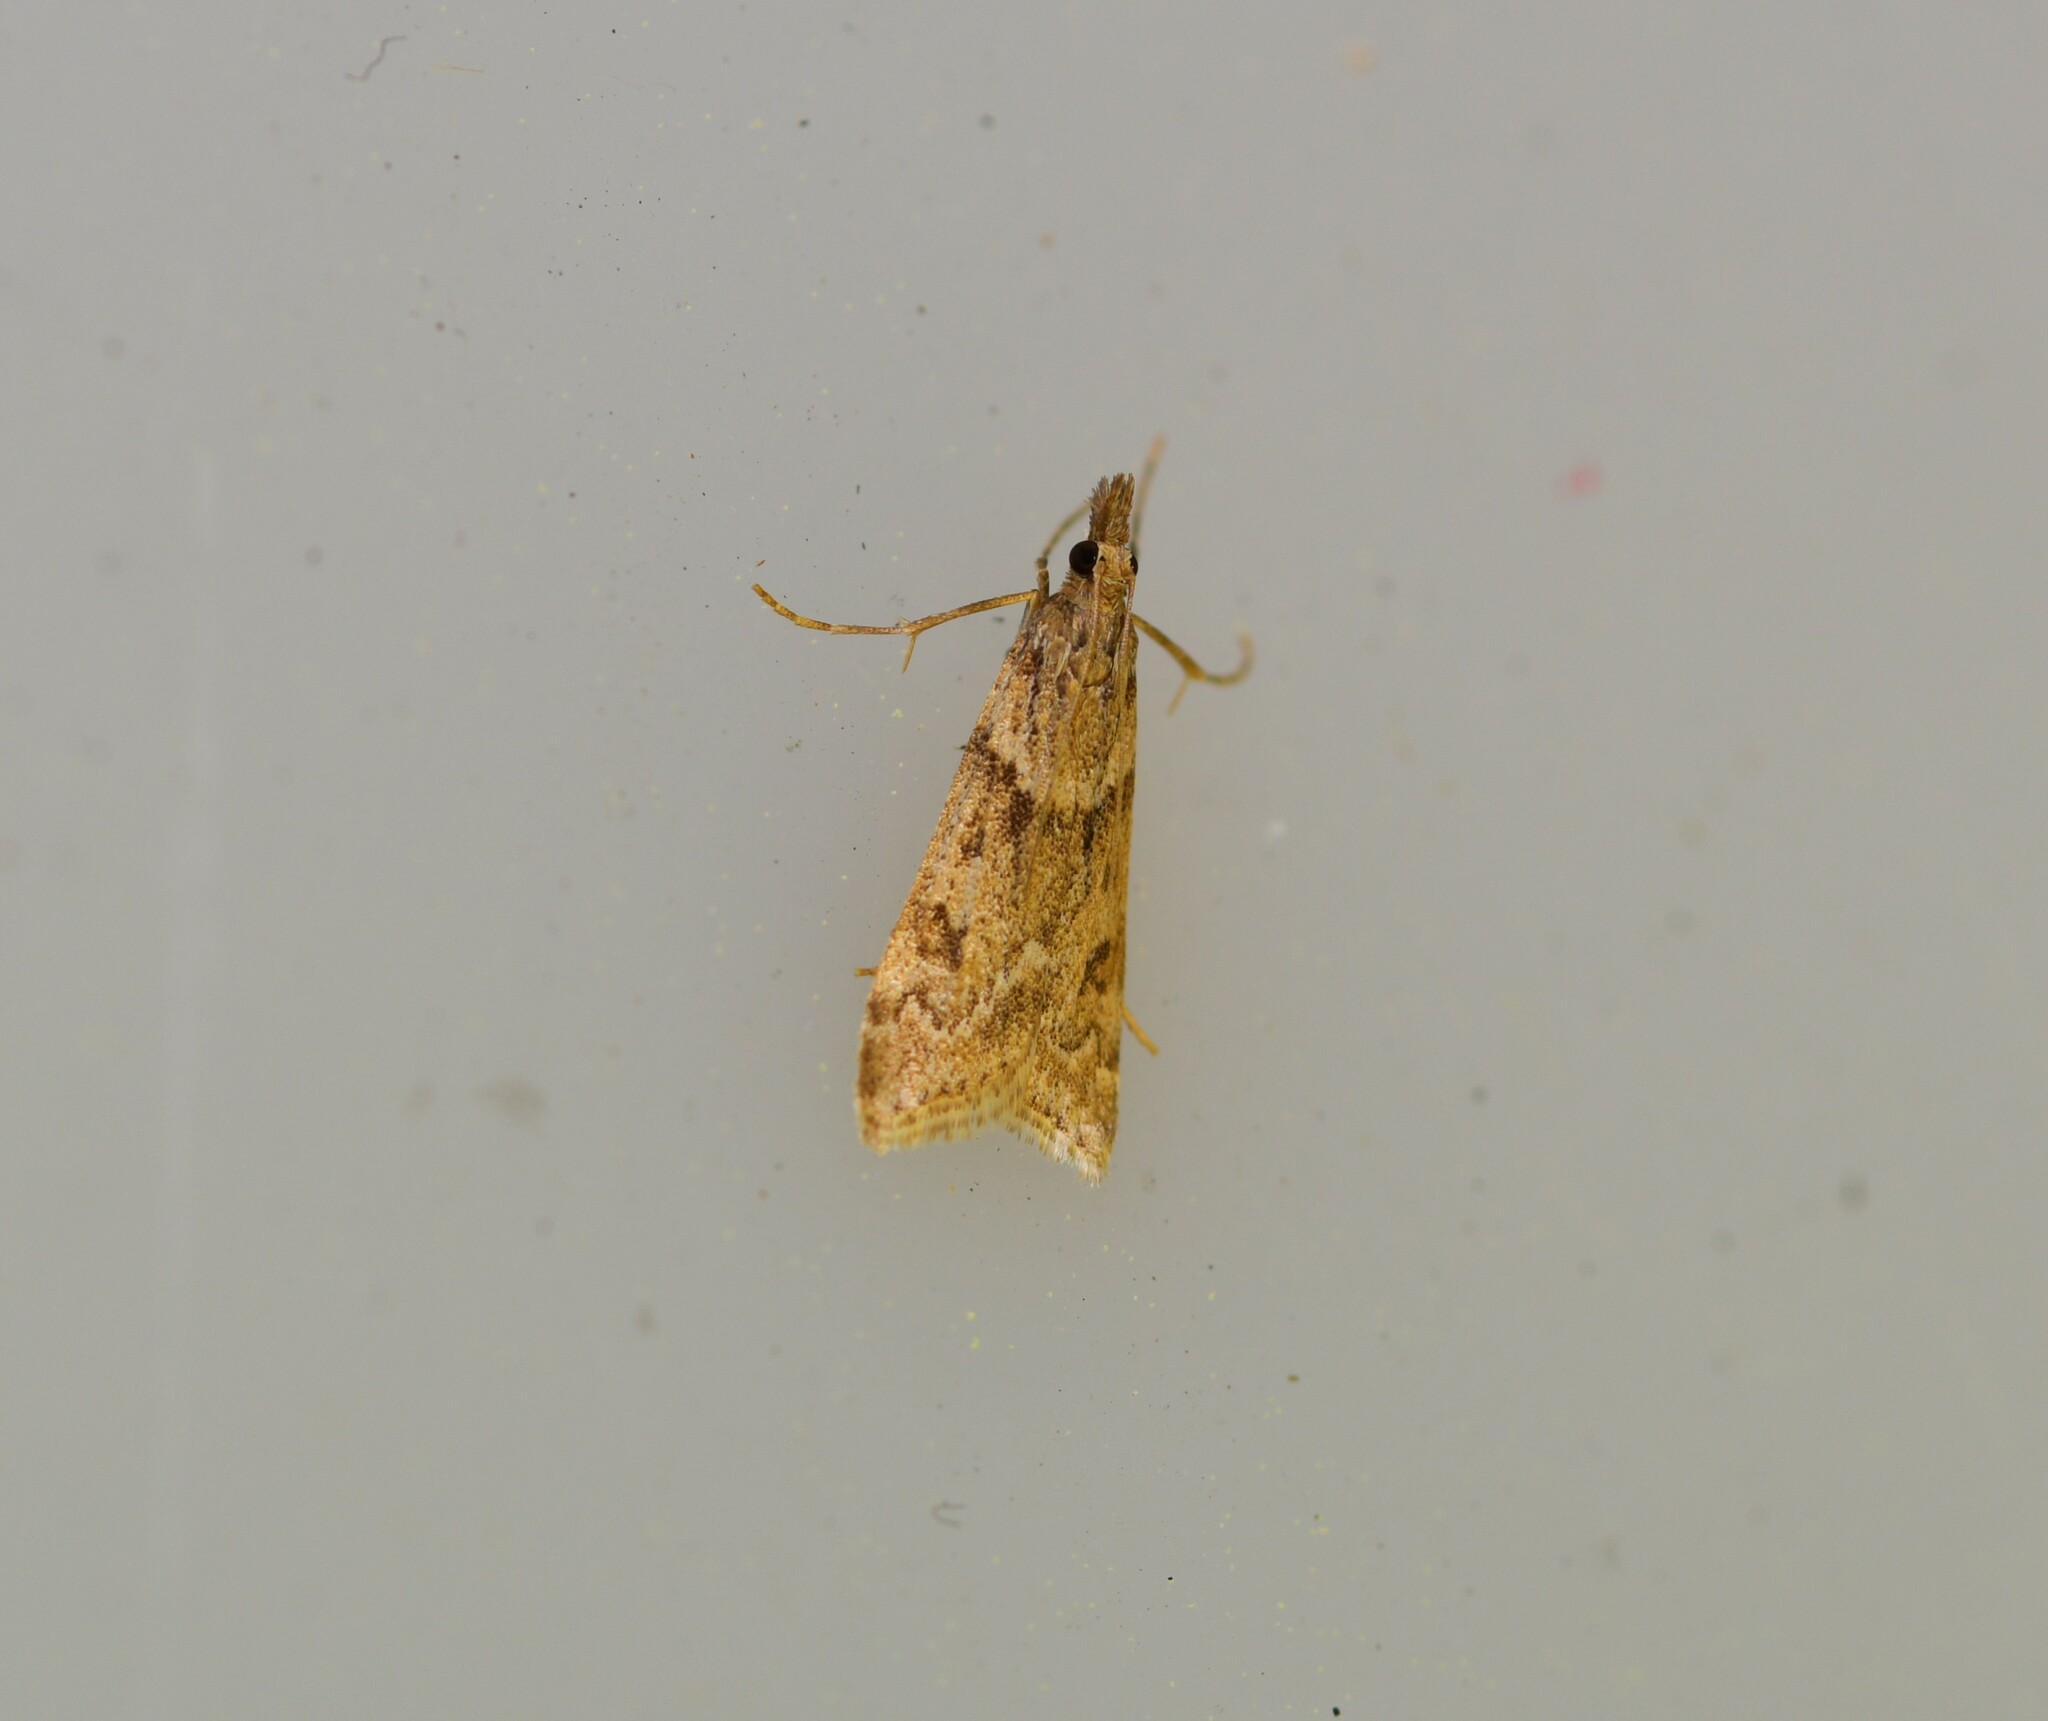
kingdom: Animalia
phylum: Arthropoda
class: Insecta
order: Lepidoptera
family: Crambidae
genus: Eudonia
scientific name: Eudonia angustea
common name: Narrow-winged grey
